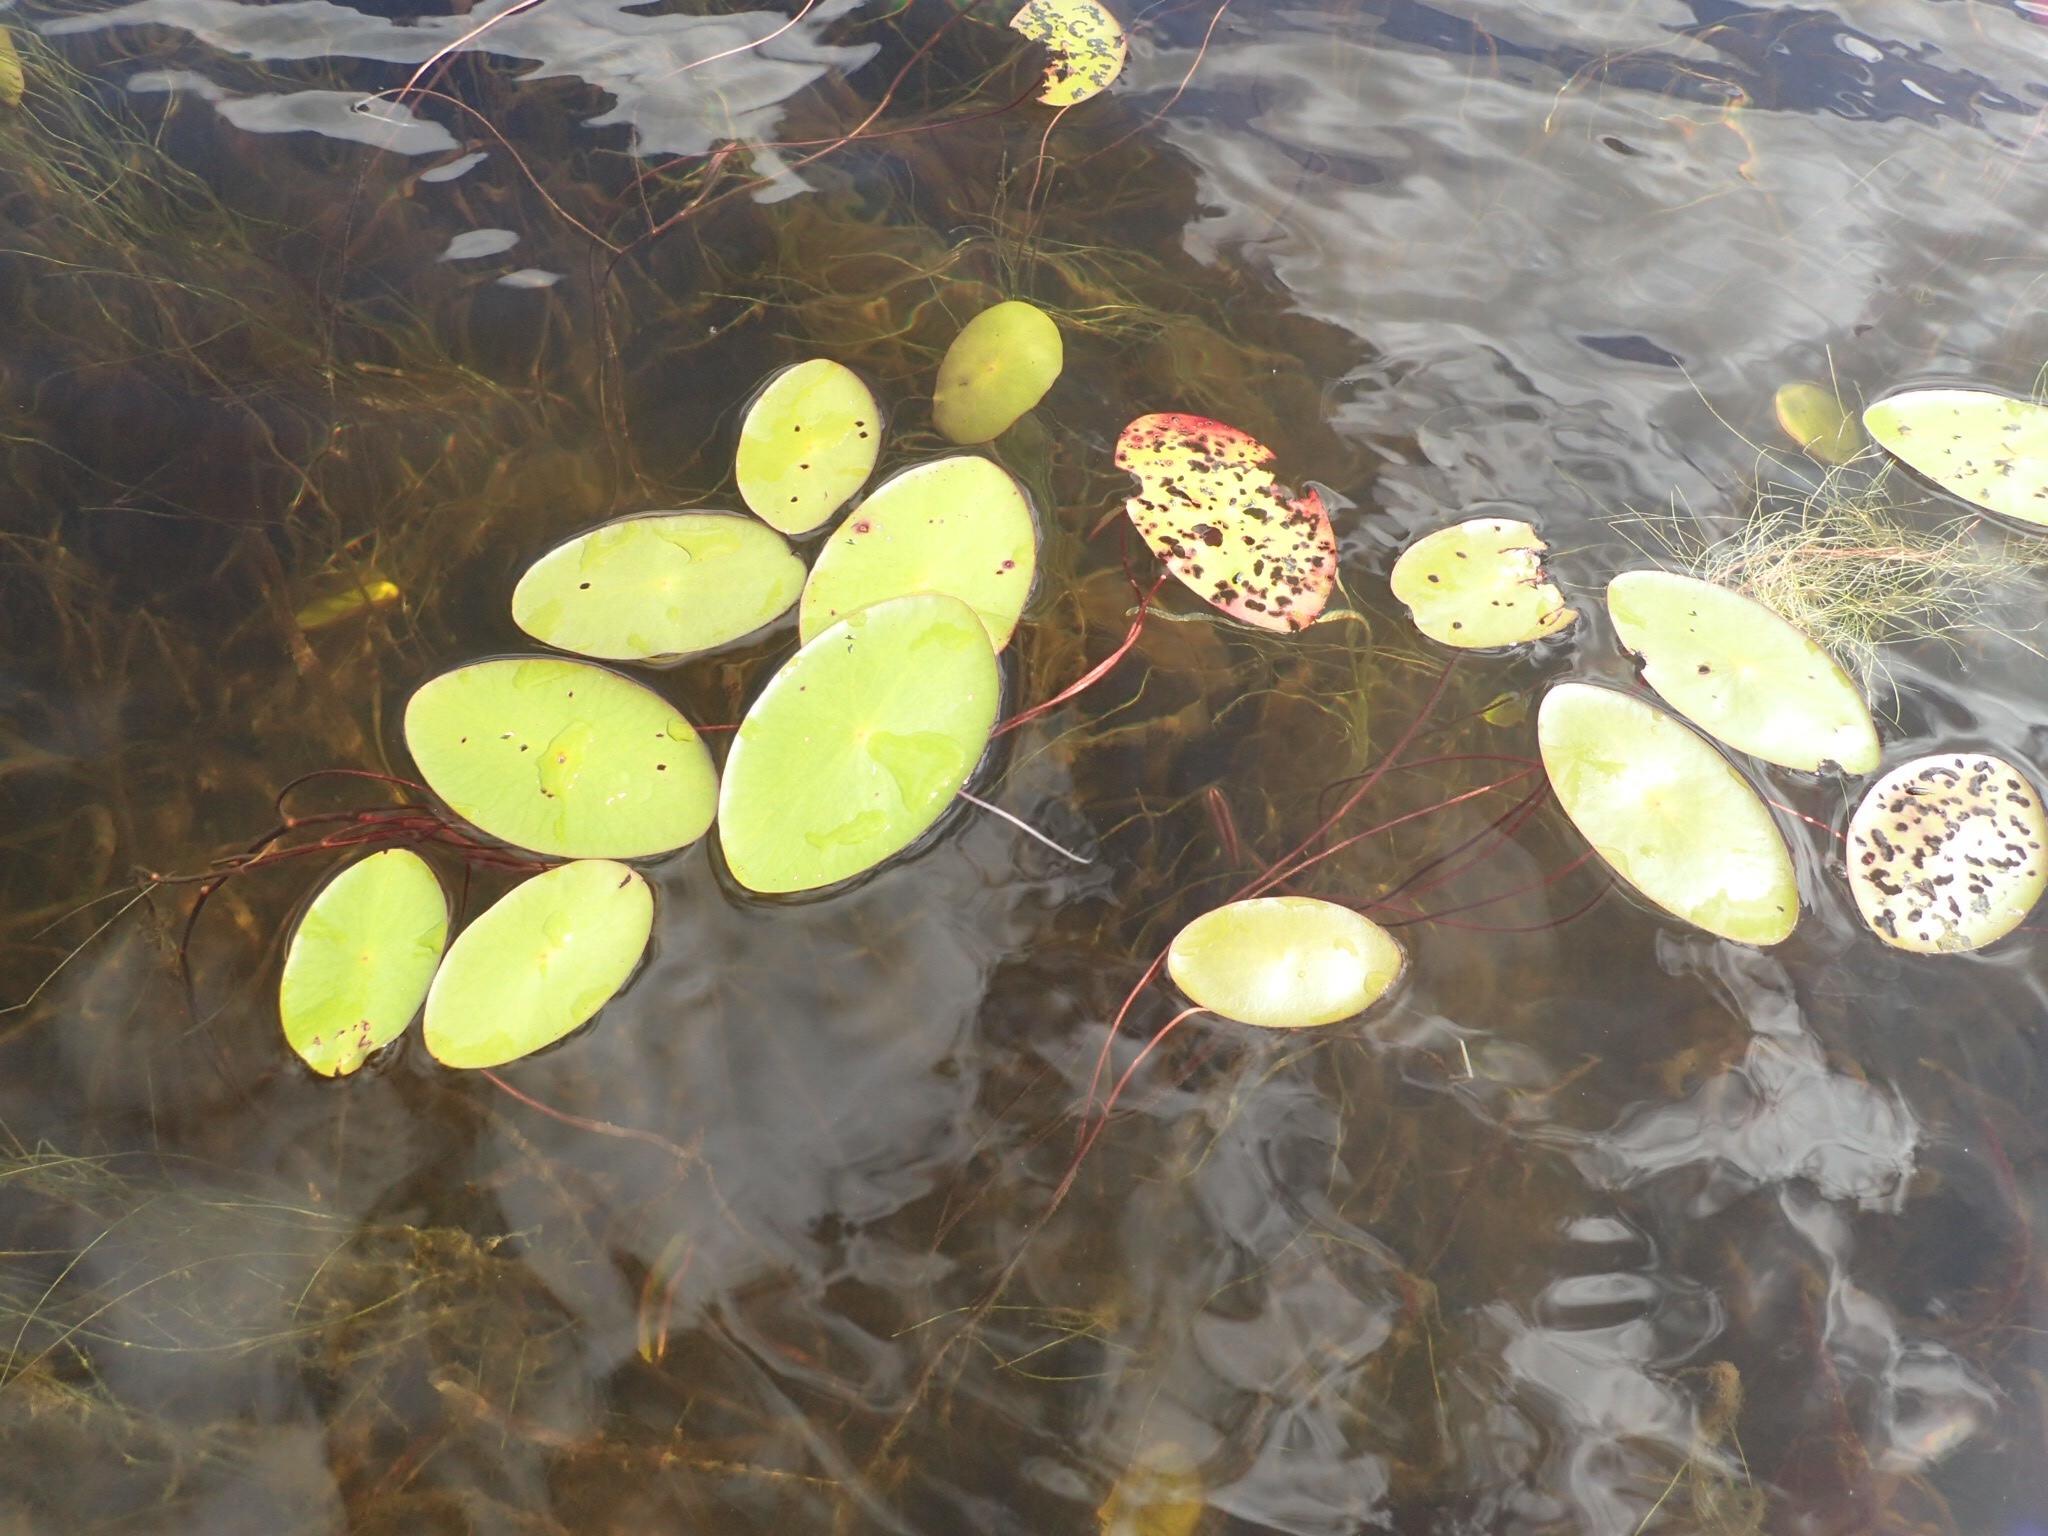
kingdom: Plantae
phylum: Tracheophyta
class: Magnoliopsida
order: Nymphaeales
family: Cabombaceae
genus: Brasenia
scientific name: Brasenia schreberi
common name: Water-shield
